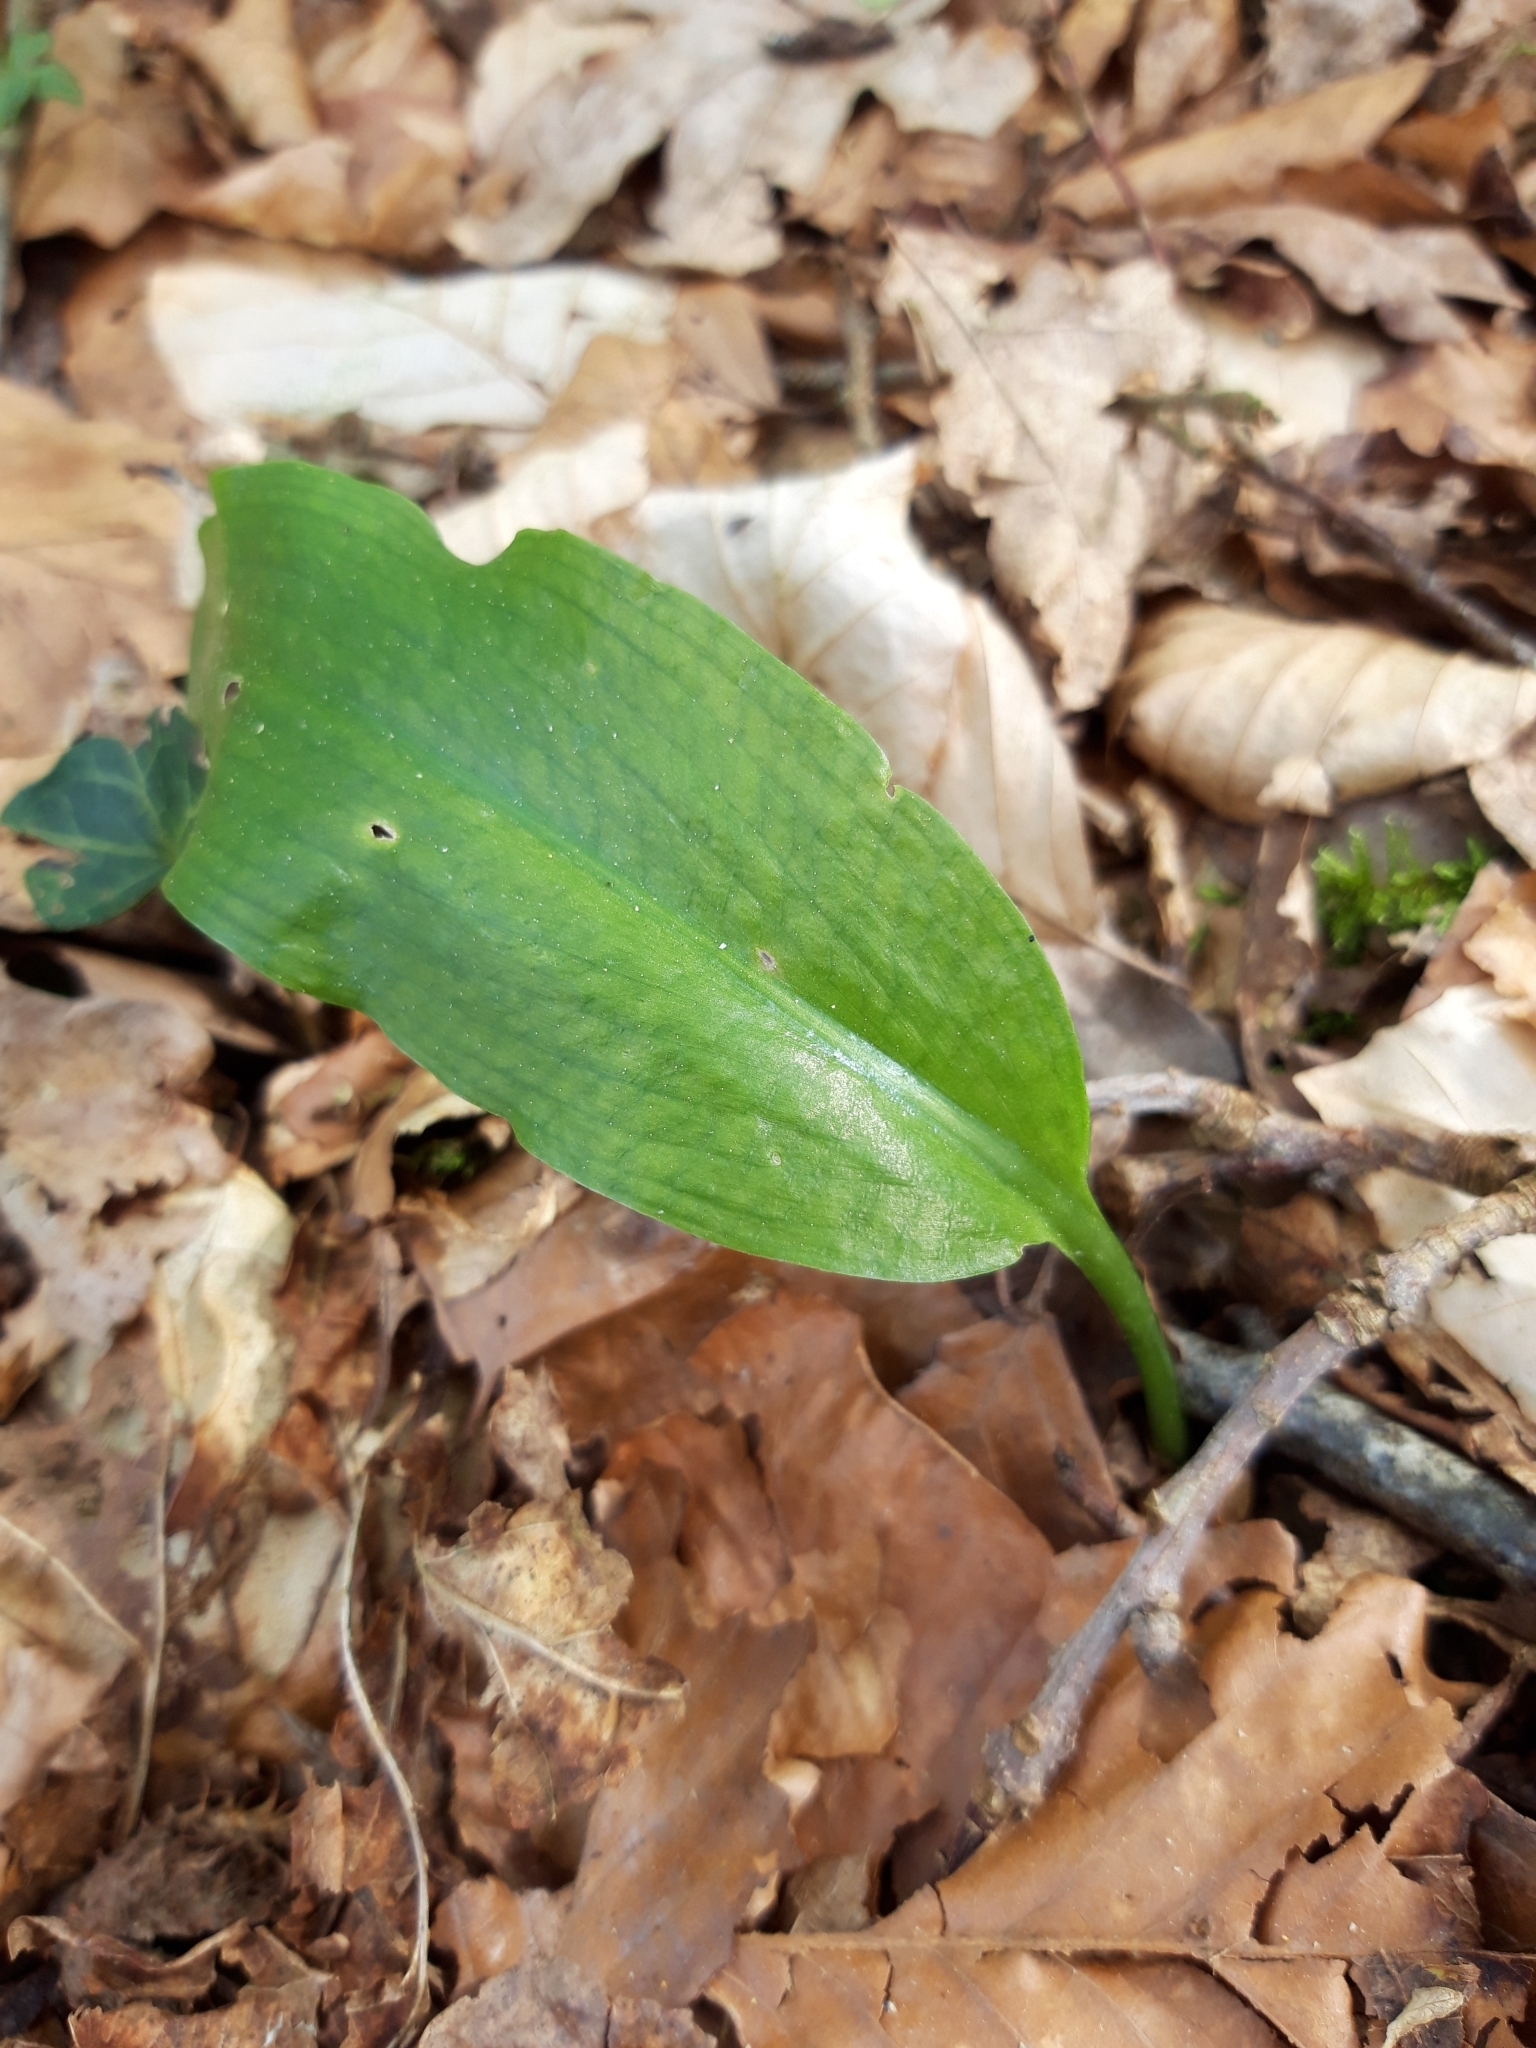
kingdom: Plantae
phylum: Tracheophyta
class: Liliopsida
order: Asparagales
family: Amaryllidaceae
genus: Allium
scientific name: Allium ursinum
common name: Ramsons
